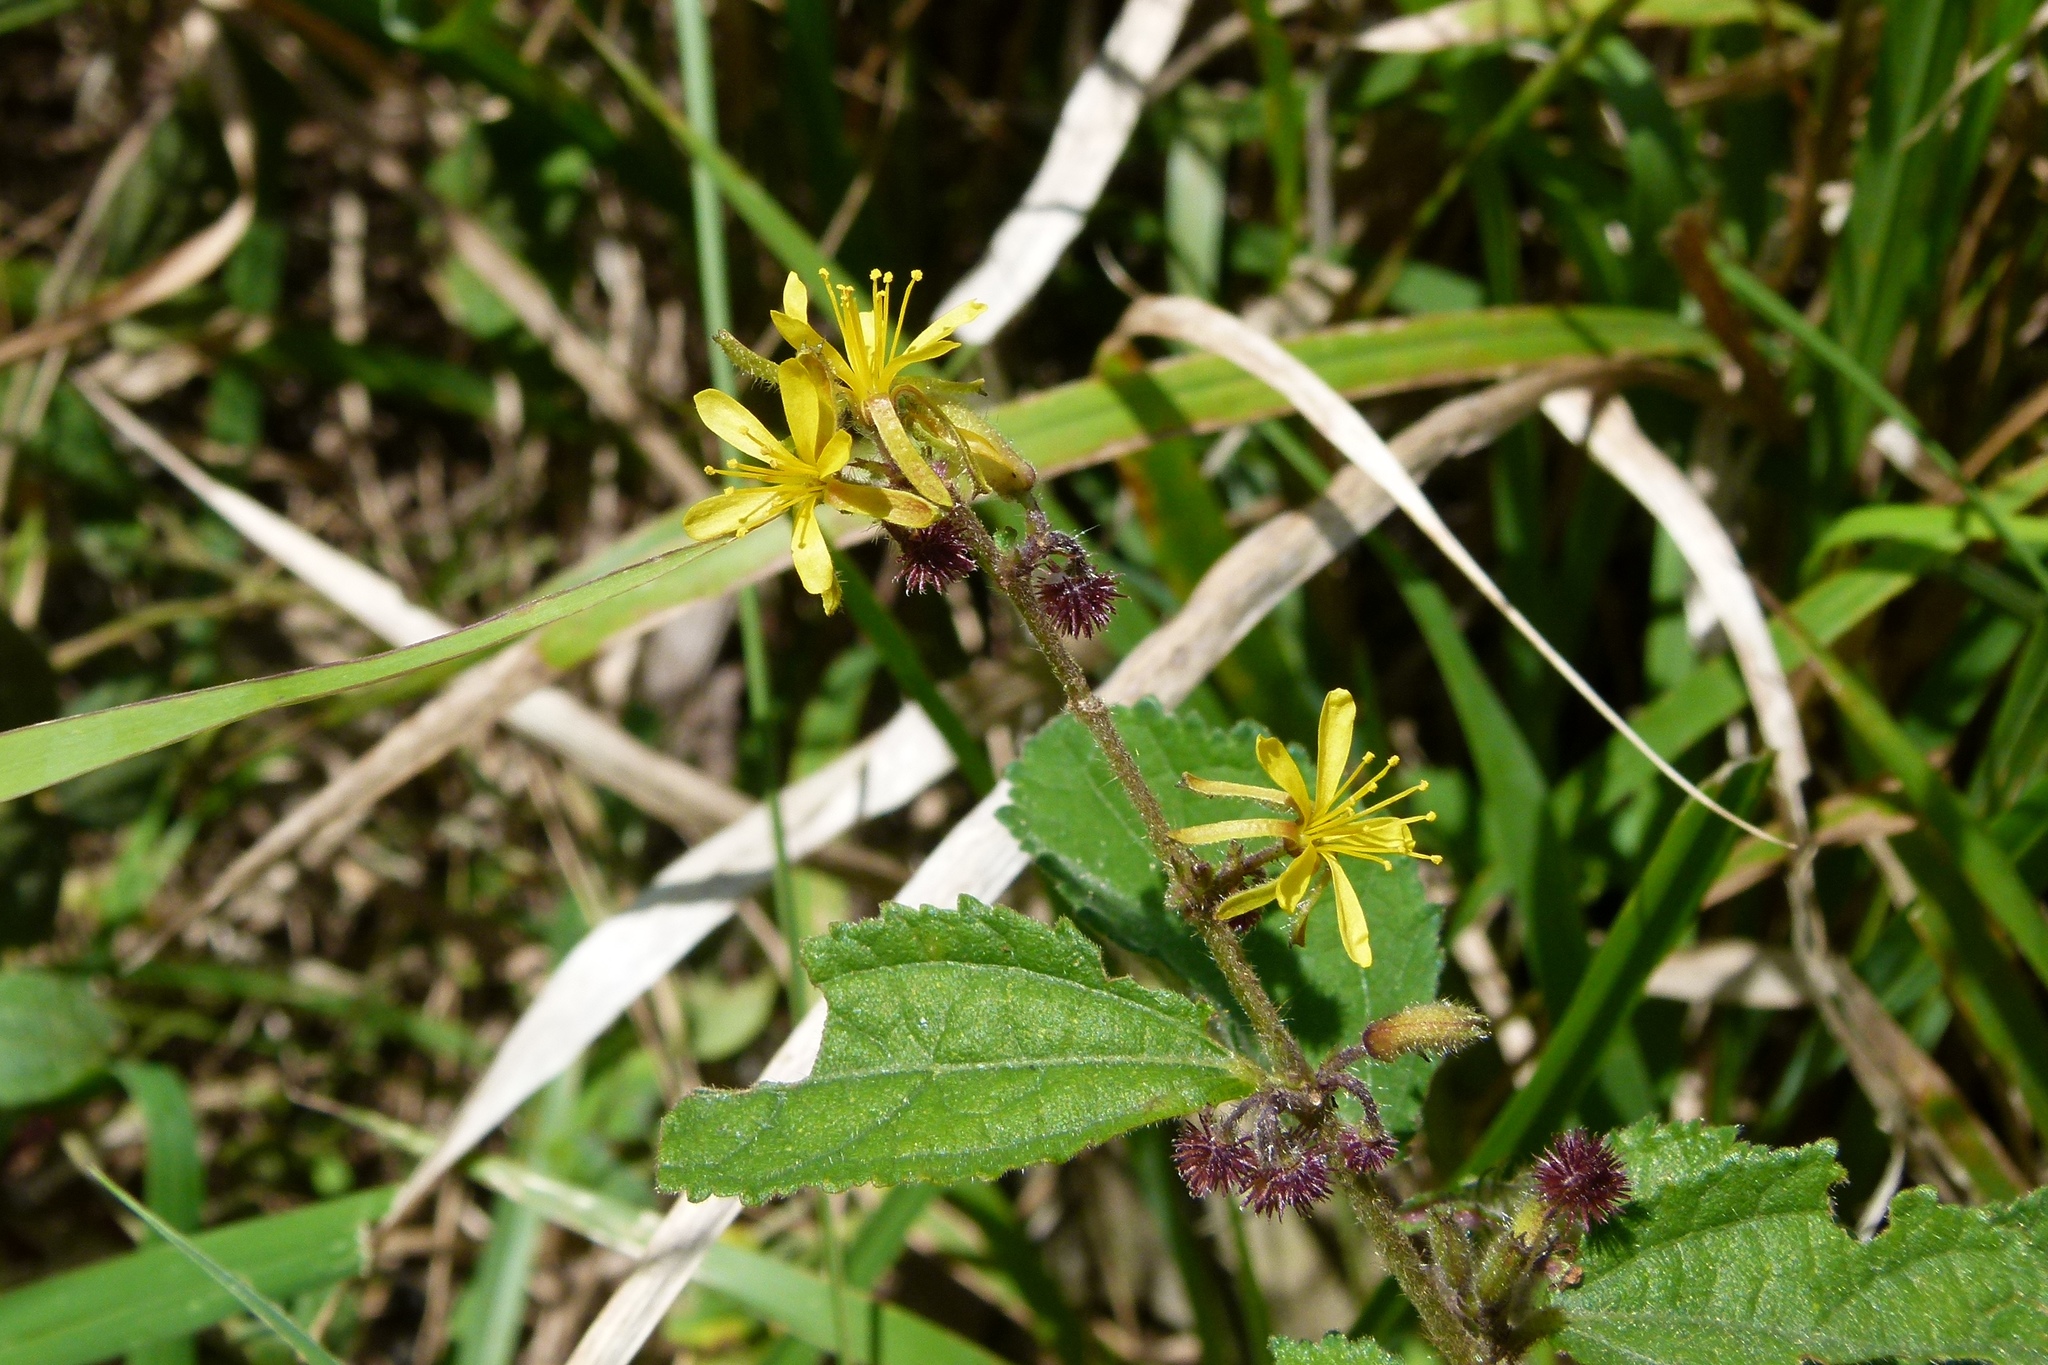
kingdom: Plantae
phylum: Tracheophyta
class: Magnoliopsida
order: Malvales
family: Malvaceae
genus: Triumfetta
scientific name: Triumfetta semitriloba
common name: Sacramento burbark
